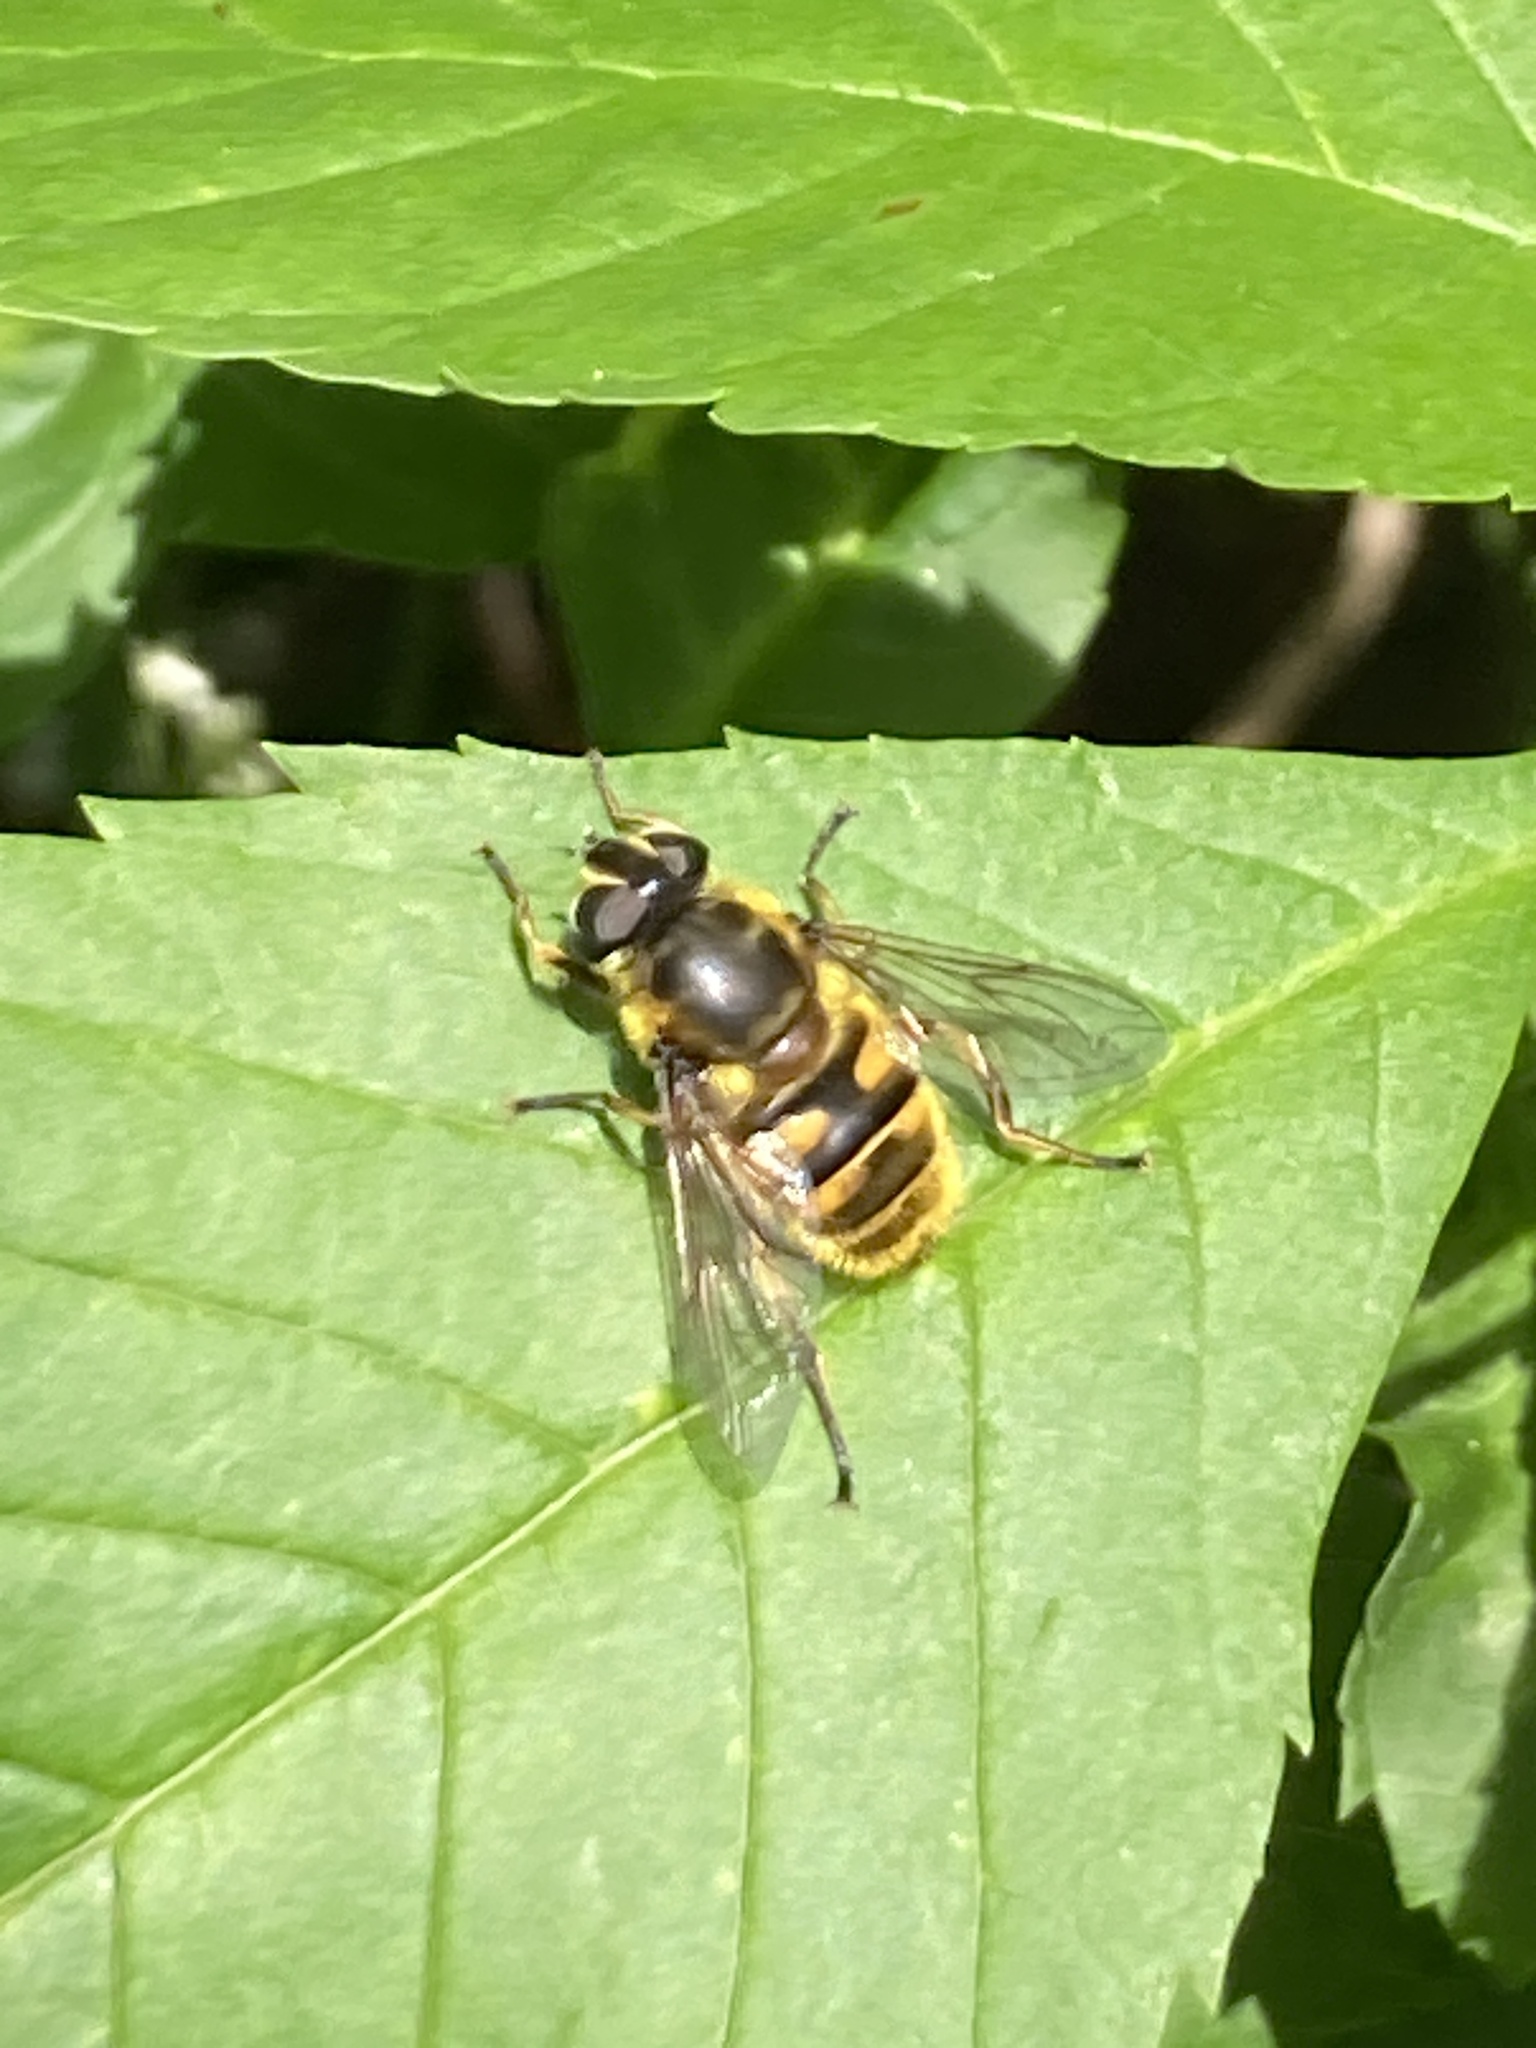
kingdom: Animalia
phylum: Arthropoda
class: Insecta
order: Diptera
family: Syrphidae
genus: Myathropa
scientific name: Myathropa florea
